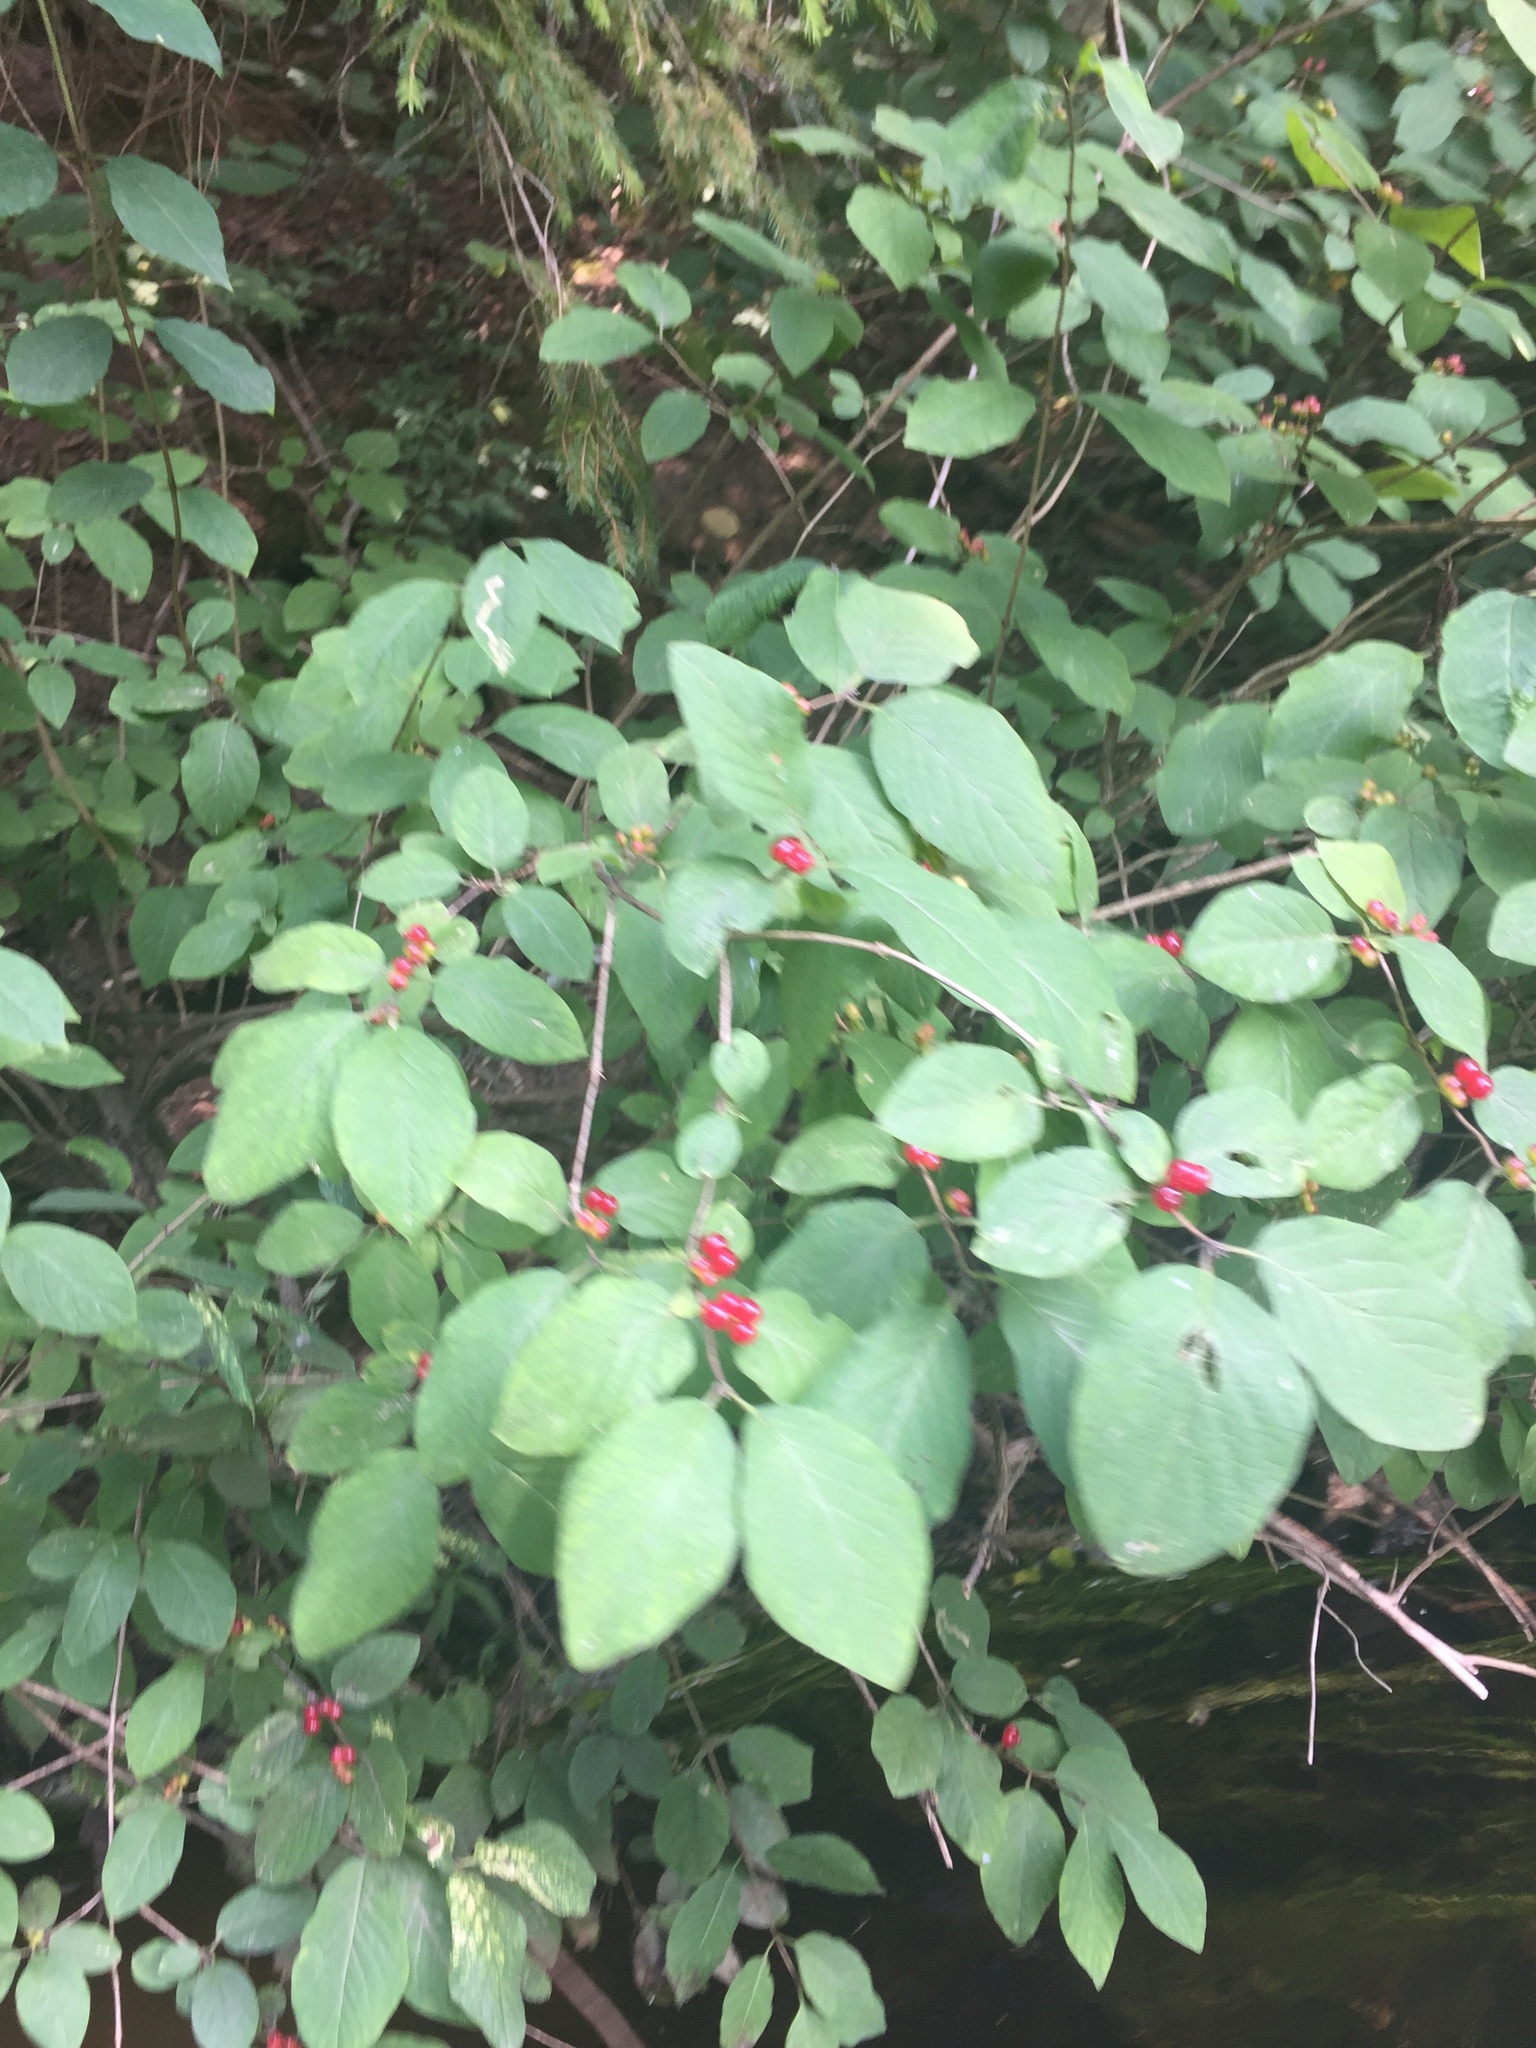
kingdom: Plantae
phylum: Tracheophyta
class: Magnoliopsida
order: Dipsacales
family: Caprifoliaceae
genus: Lonicera
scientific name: Lonicera xylosteum
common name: Fly honeysuckle
